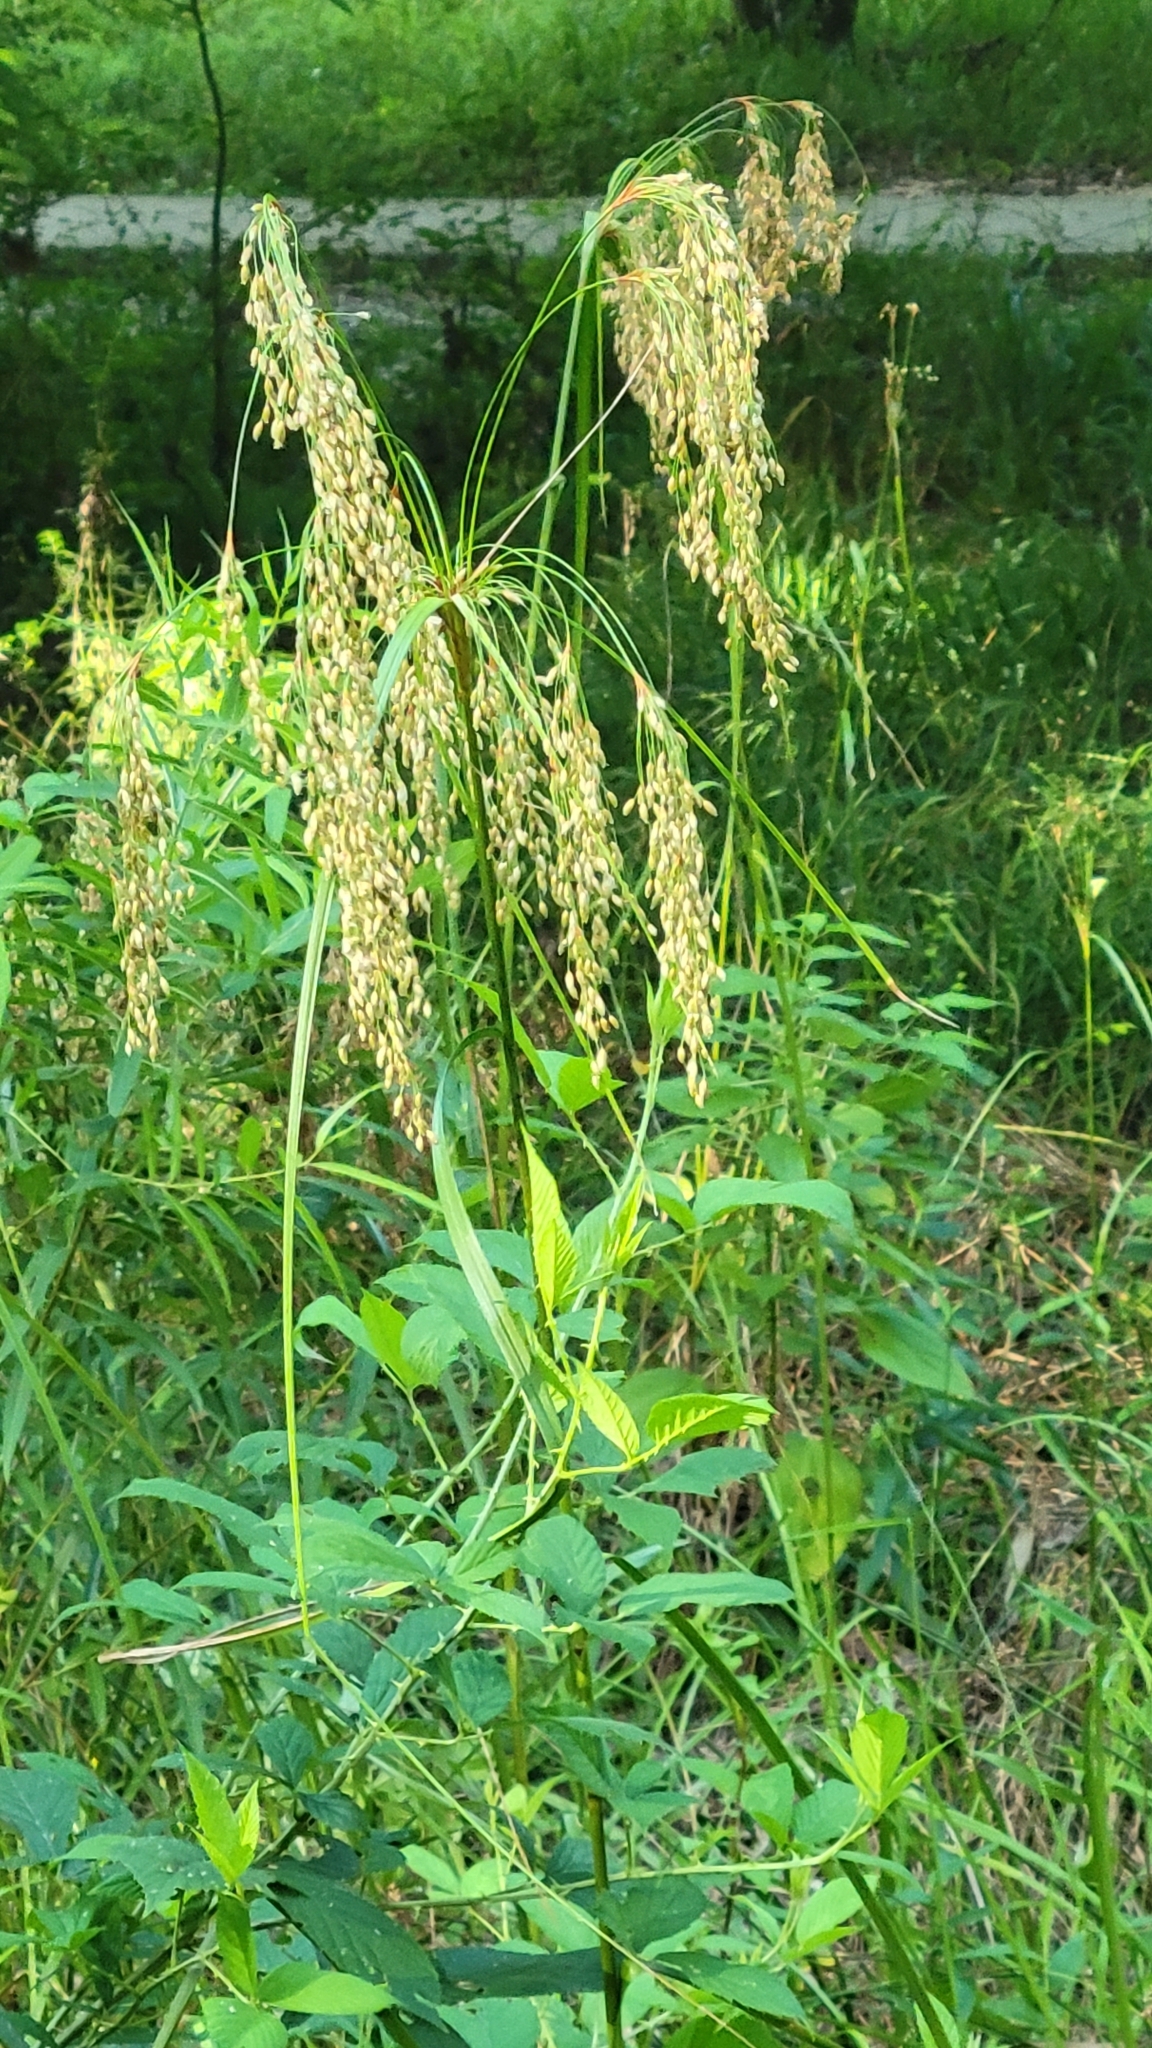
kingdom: Plantae
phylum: Tracheophyta
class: Liliopsida
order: Poales
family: Cyperaceae
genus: Scirpus
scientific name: Scirpus cyperinus
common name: Black-sheathed bulrush
